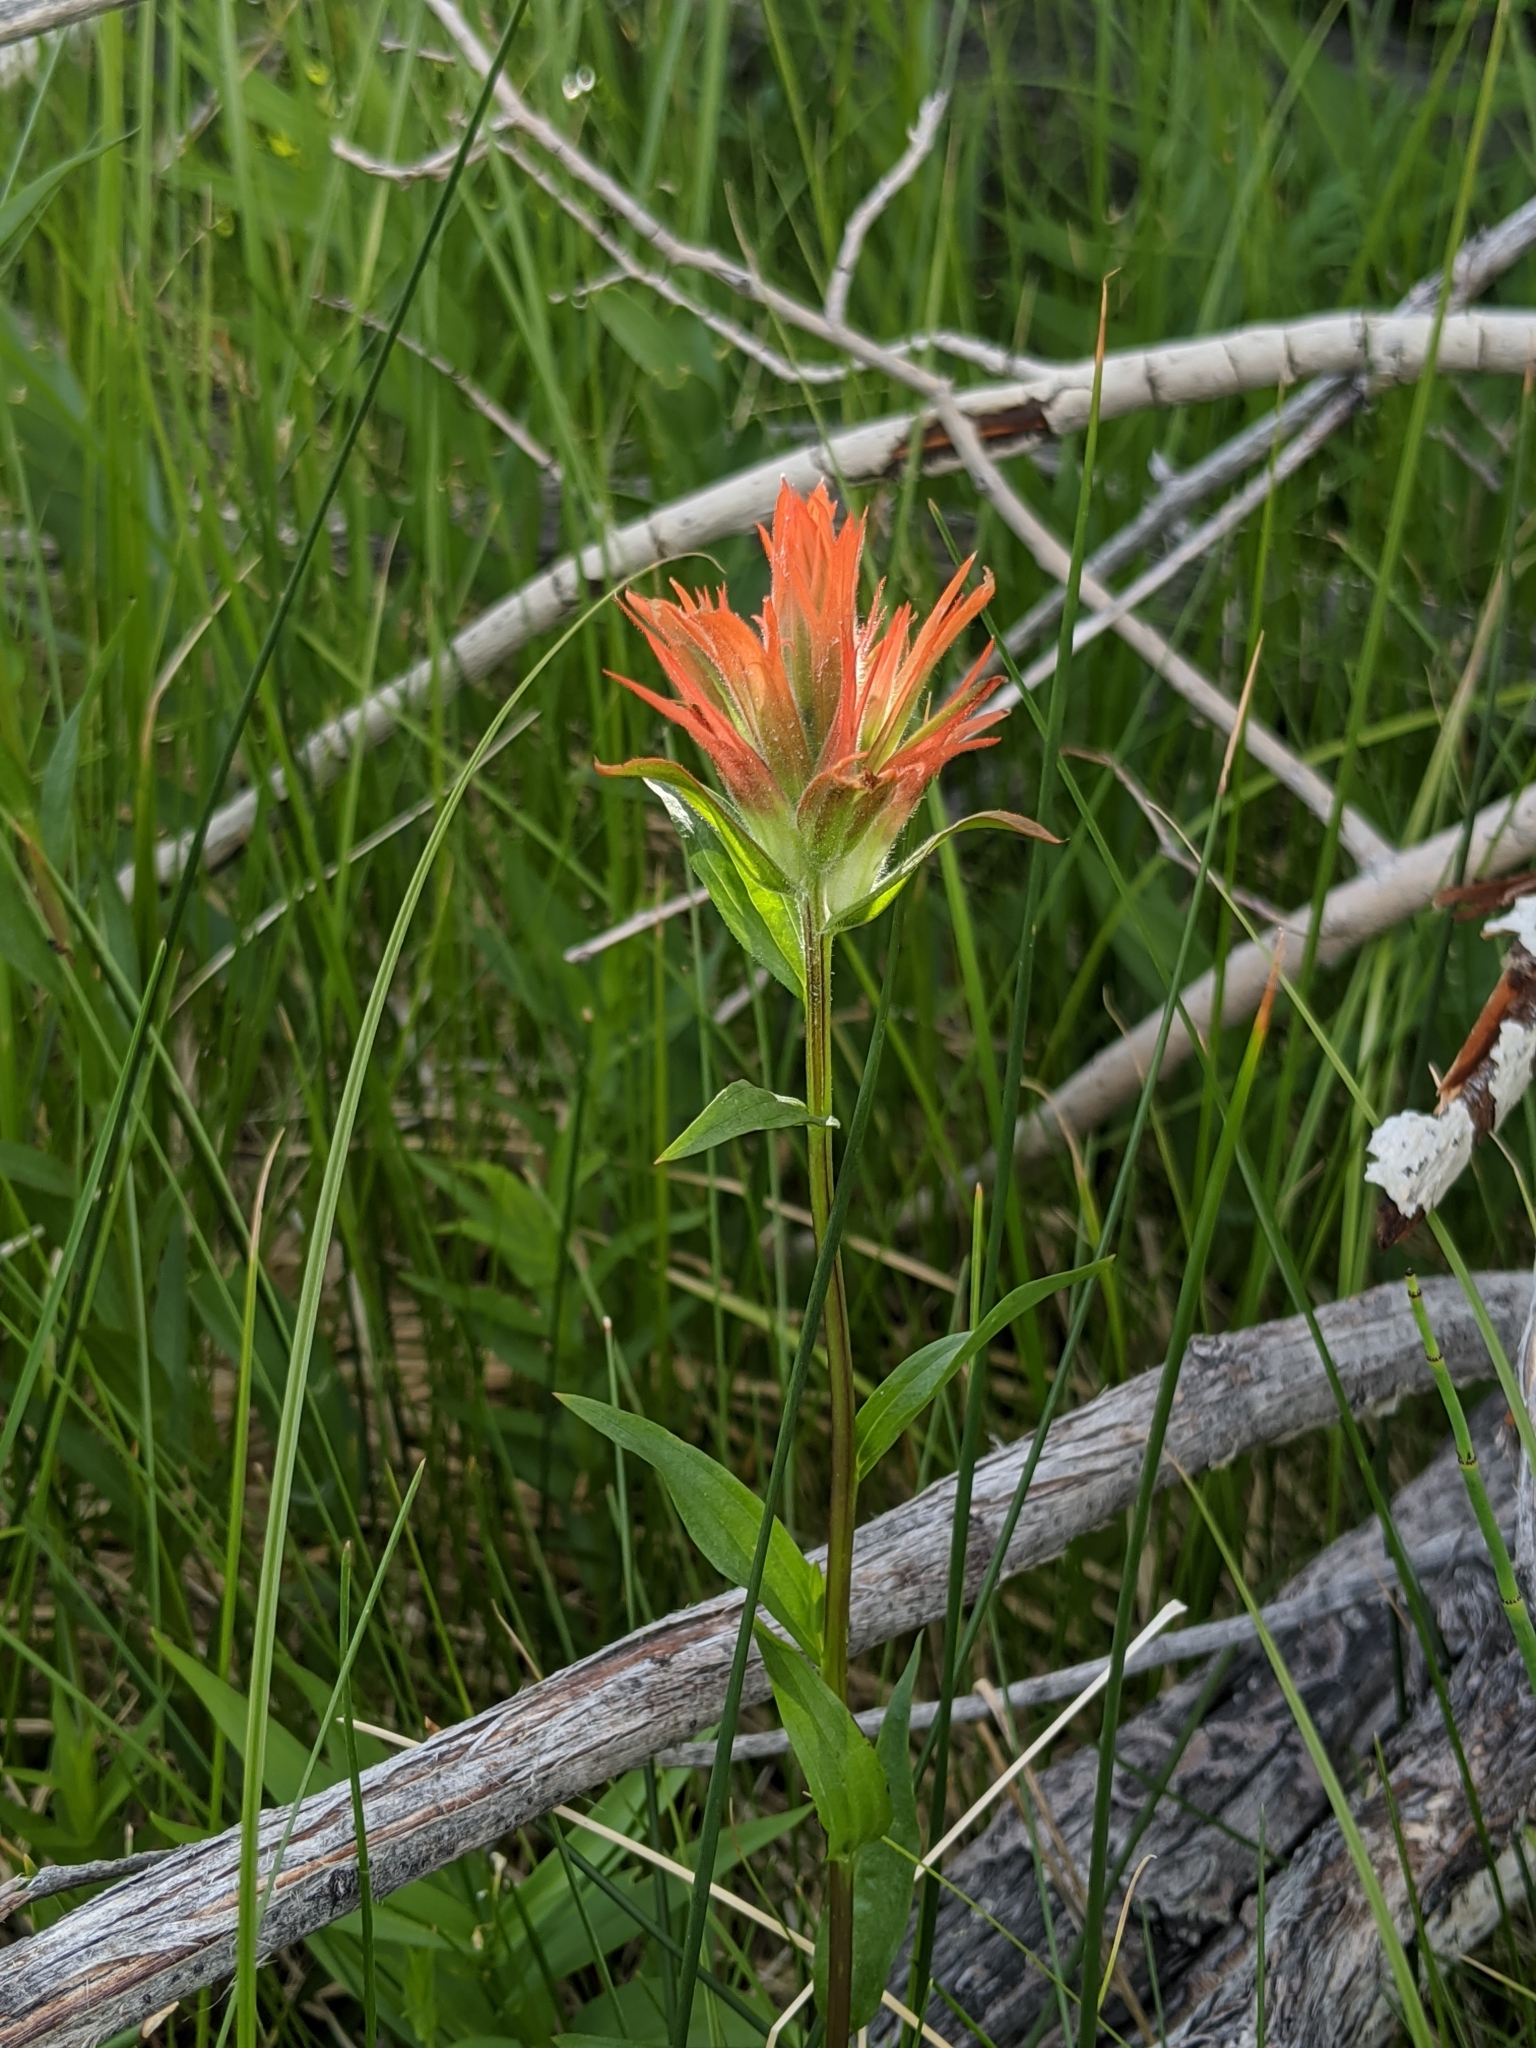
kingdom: Plantae
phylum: Tracheophyta
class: Magnoliopsida
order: Lamiales
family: Orobanchaceae
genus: Castilleja
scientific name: Castilleja miniata
